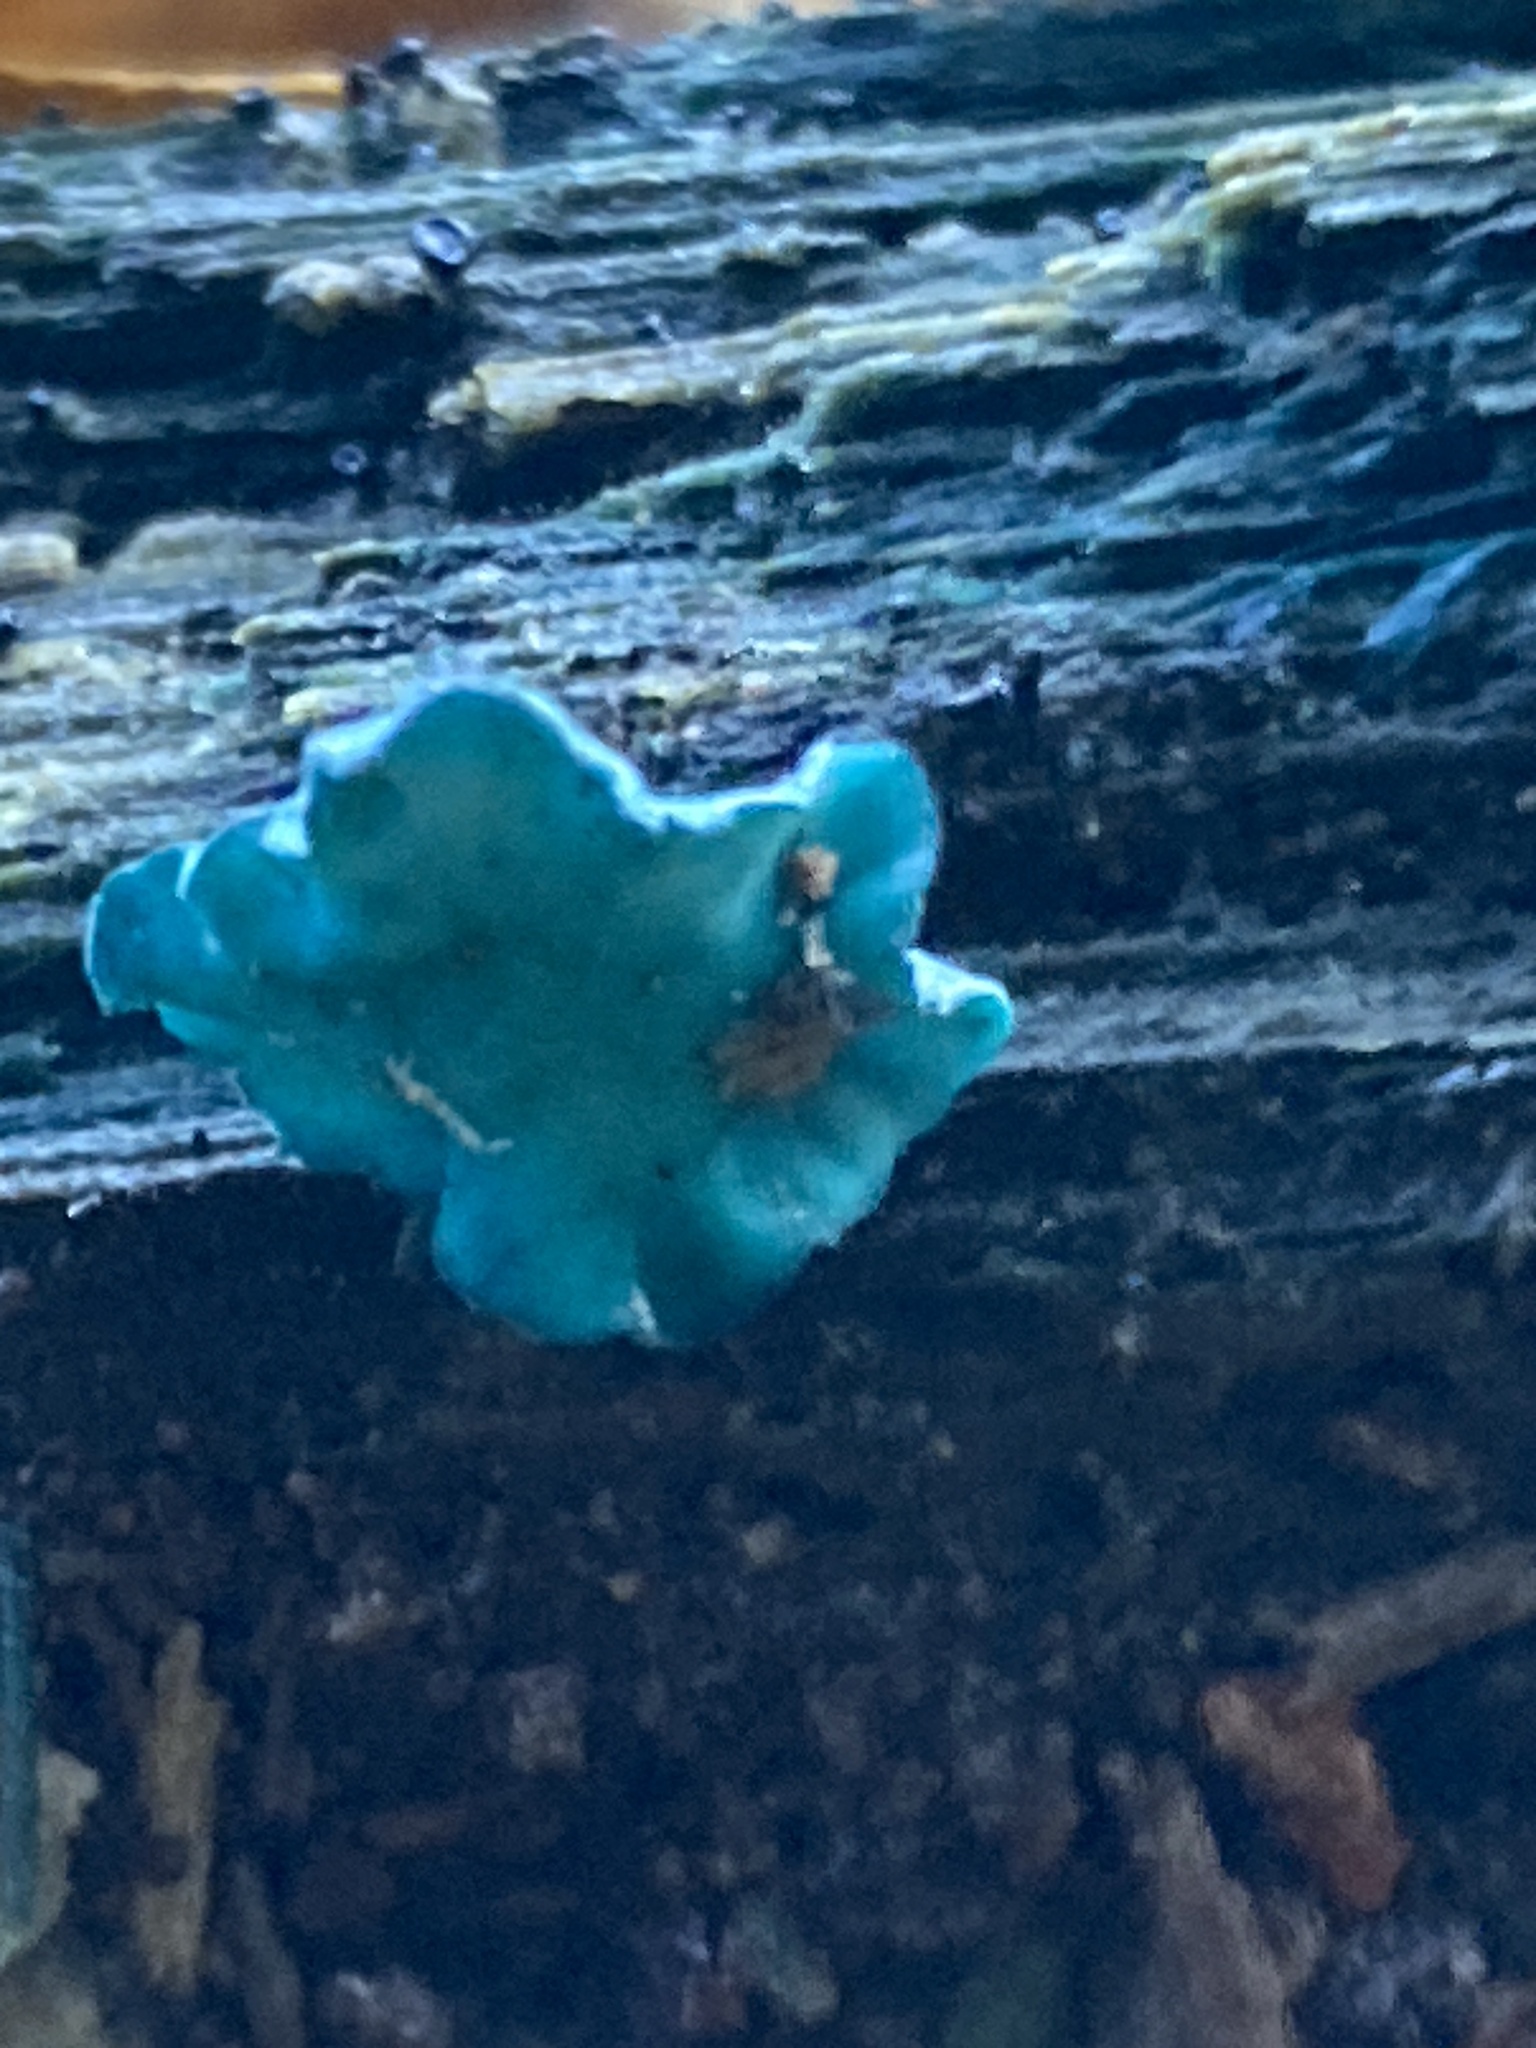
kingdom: Fungi
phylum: Ascomycota
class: Leotiomycetes
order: Helotiales
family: Chlorociboriaceae
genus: Chlorociboria
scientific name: Chlorociboria aeruginascens
